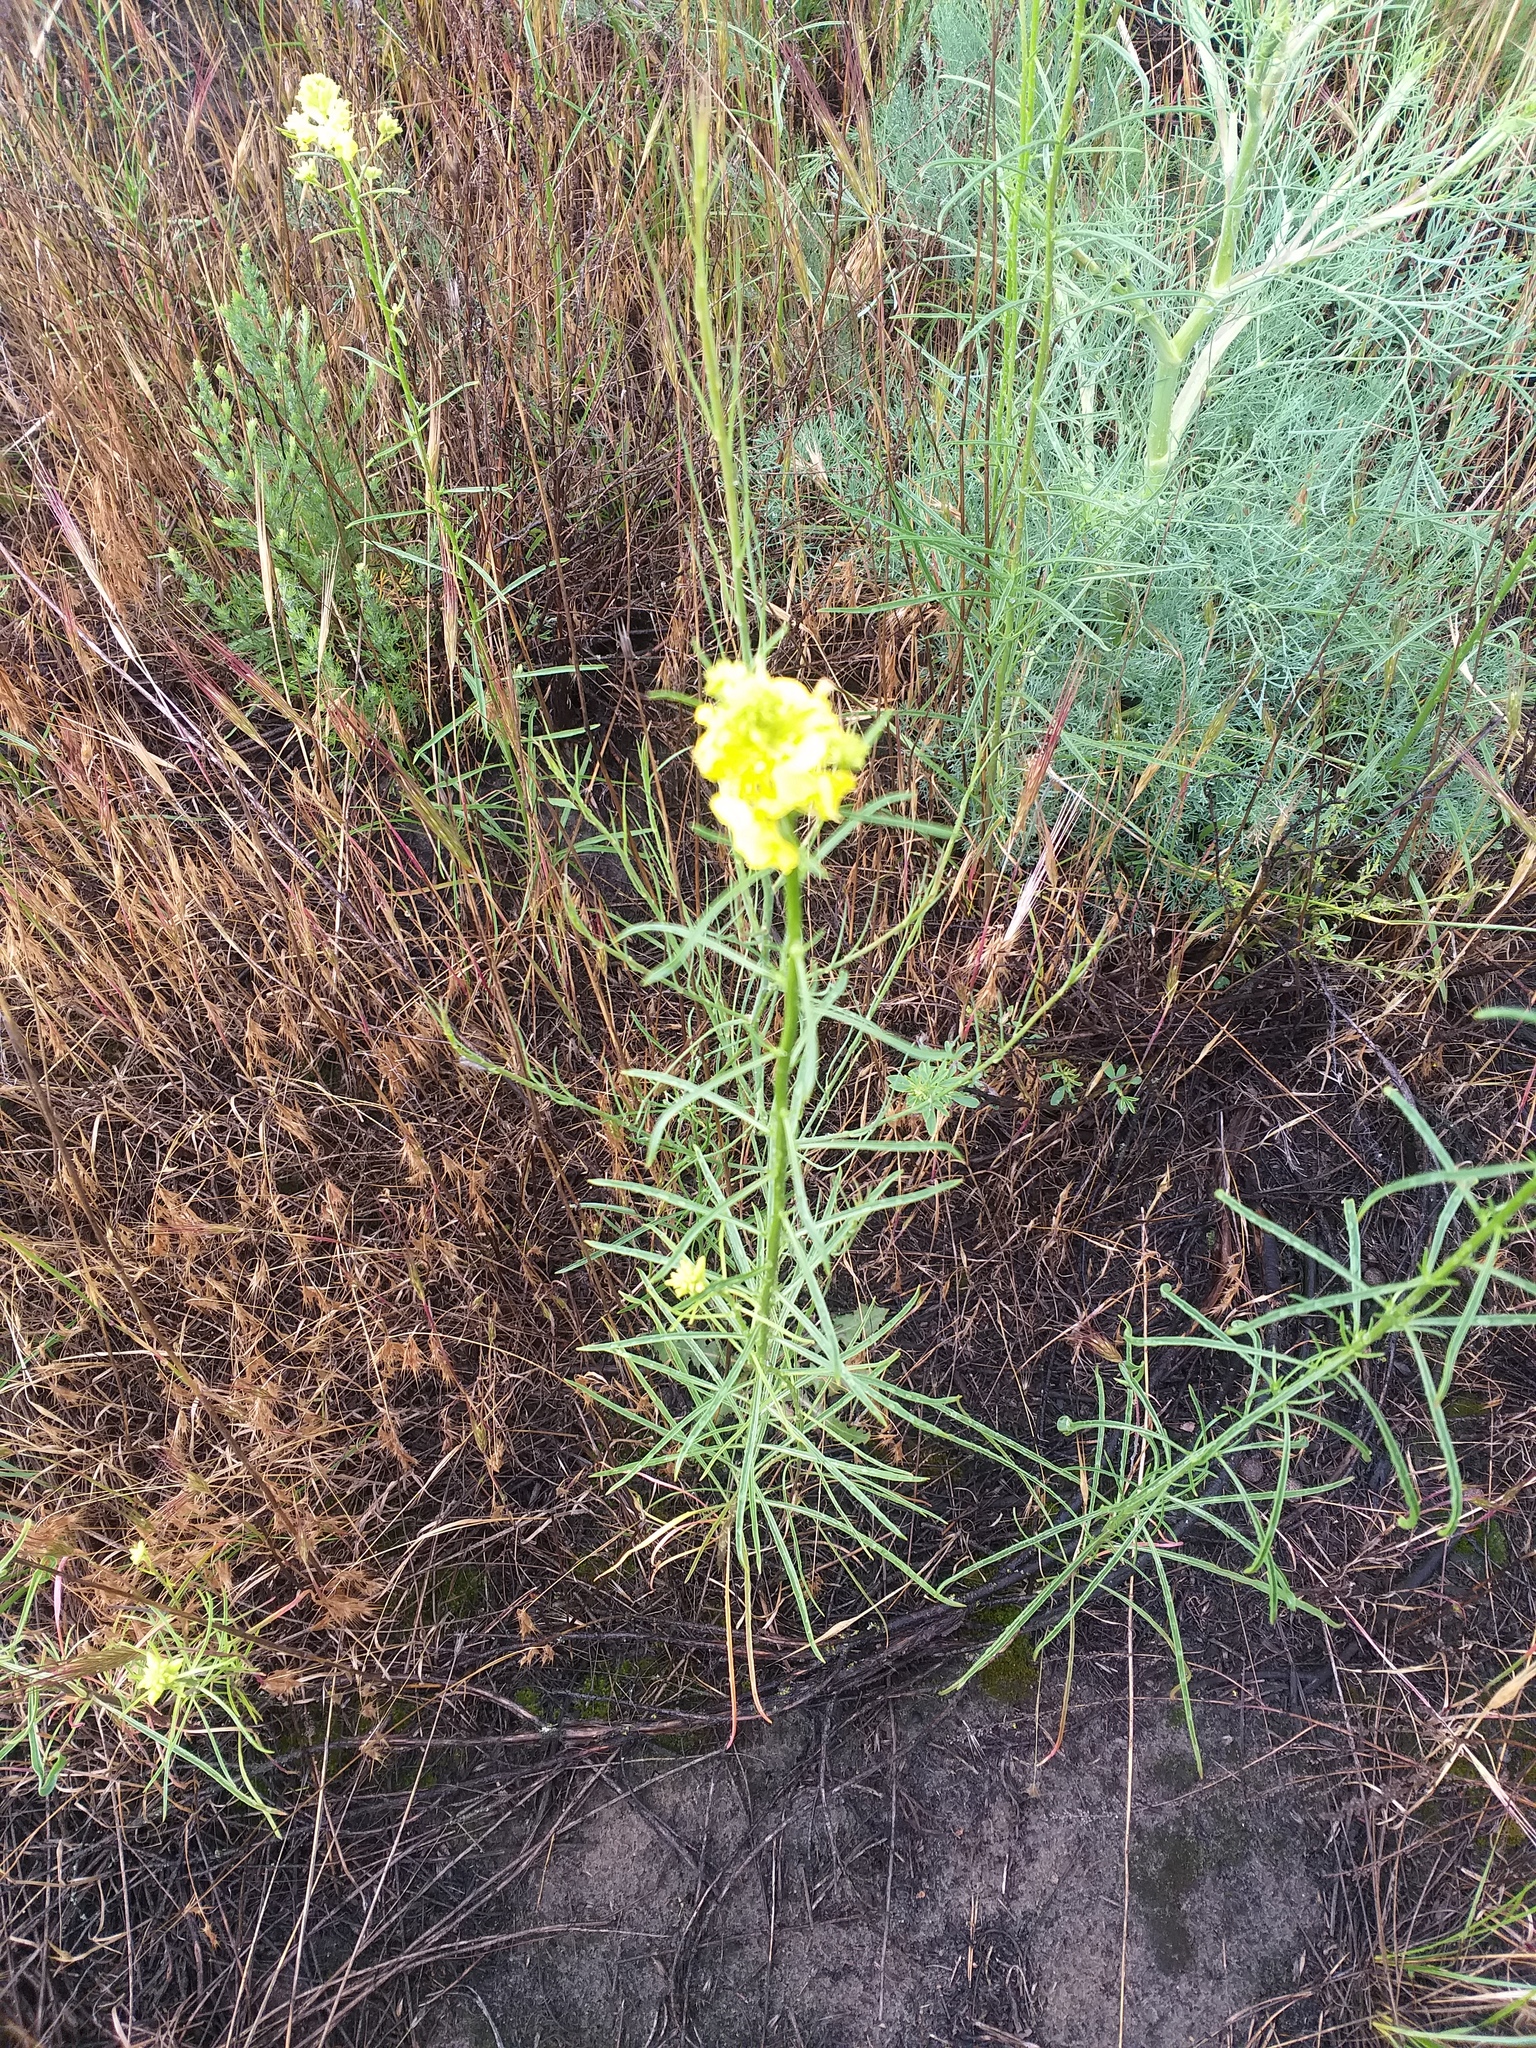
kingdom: Plantae
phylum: Tracheophyta
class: Magnoliopsida
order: Brassicales
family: Brassicaceae
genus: Erysimum
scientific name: Erysimum quadrangulum
